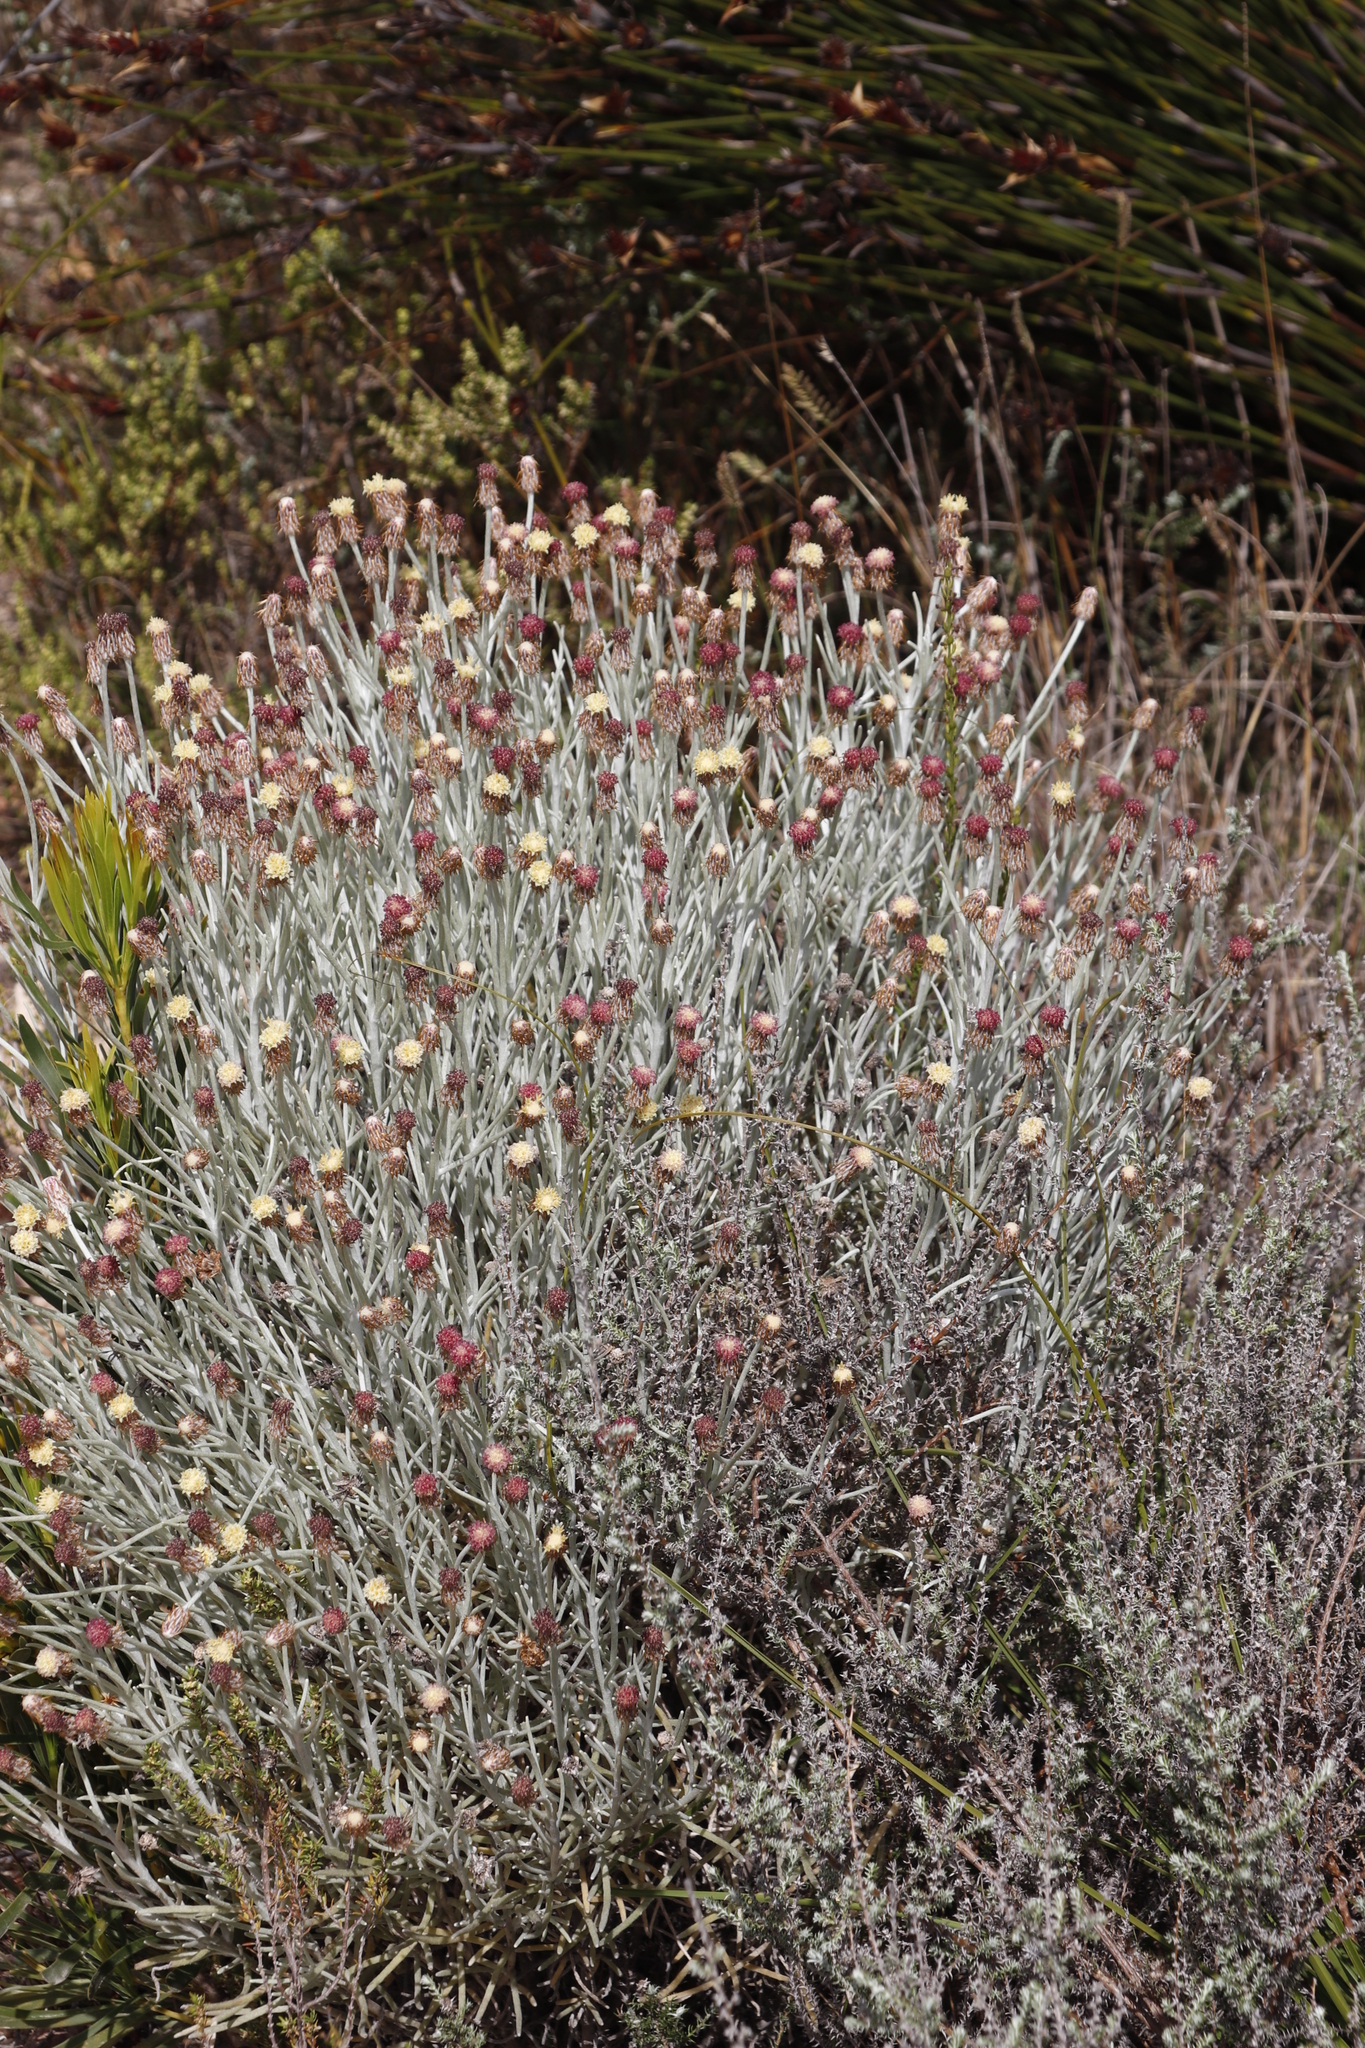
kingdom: Plantae
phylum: Tracheophyta
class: Magnoliopsida
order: Asterales
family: Asteraceae
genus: Syncarpha
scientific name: Syncarpha gnaphaloides
